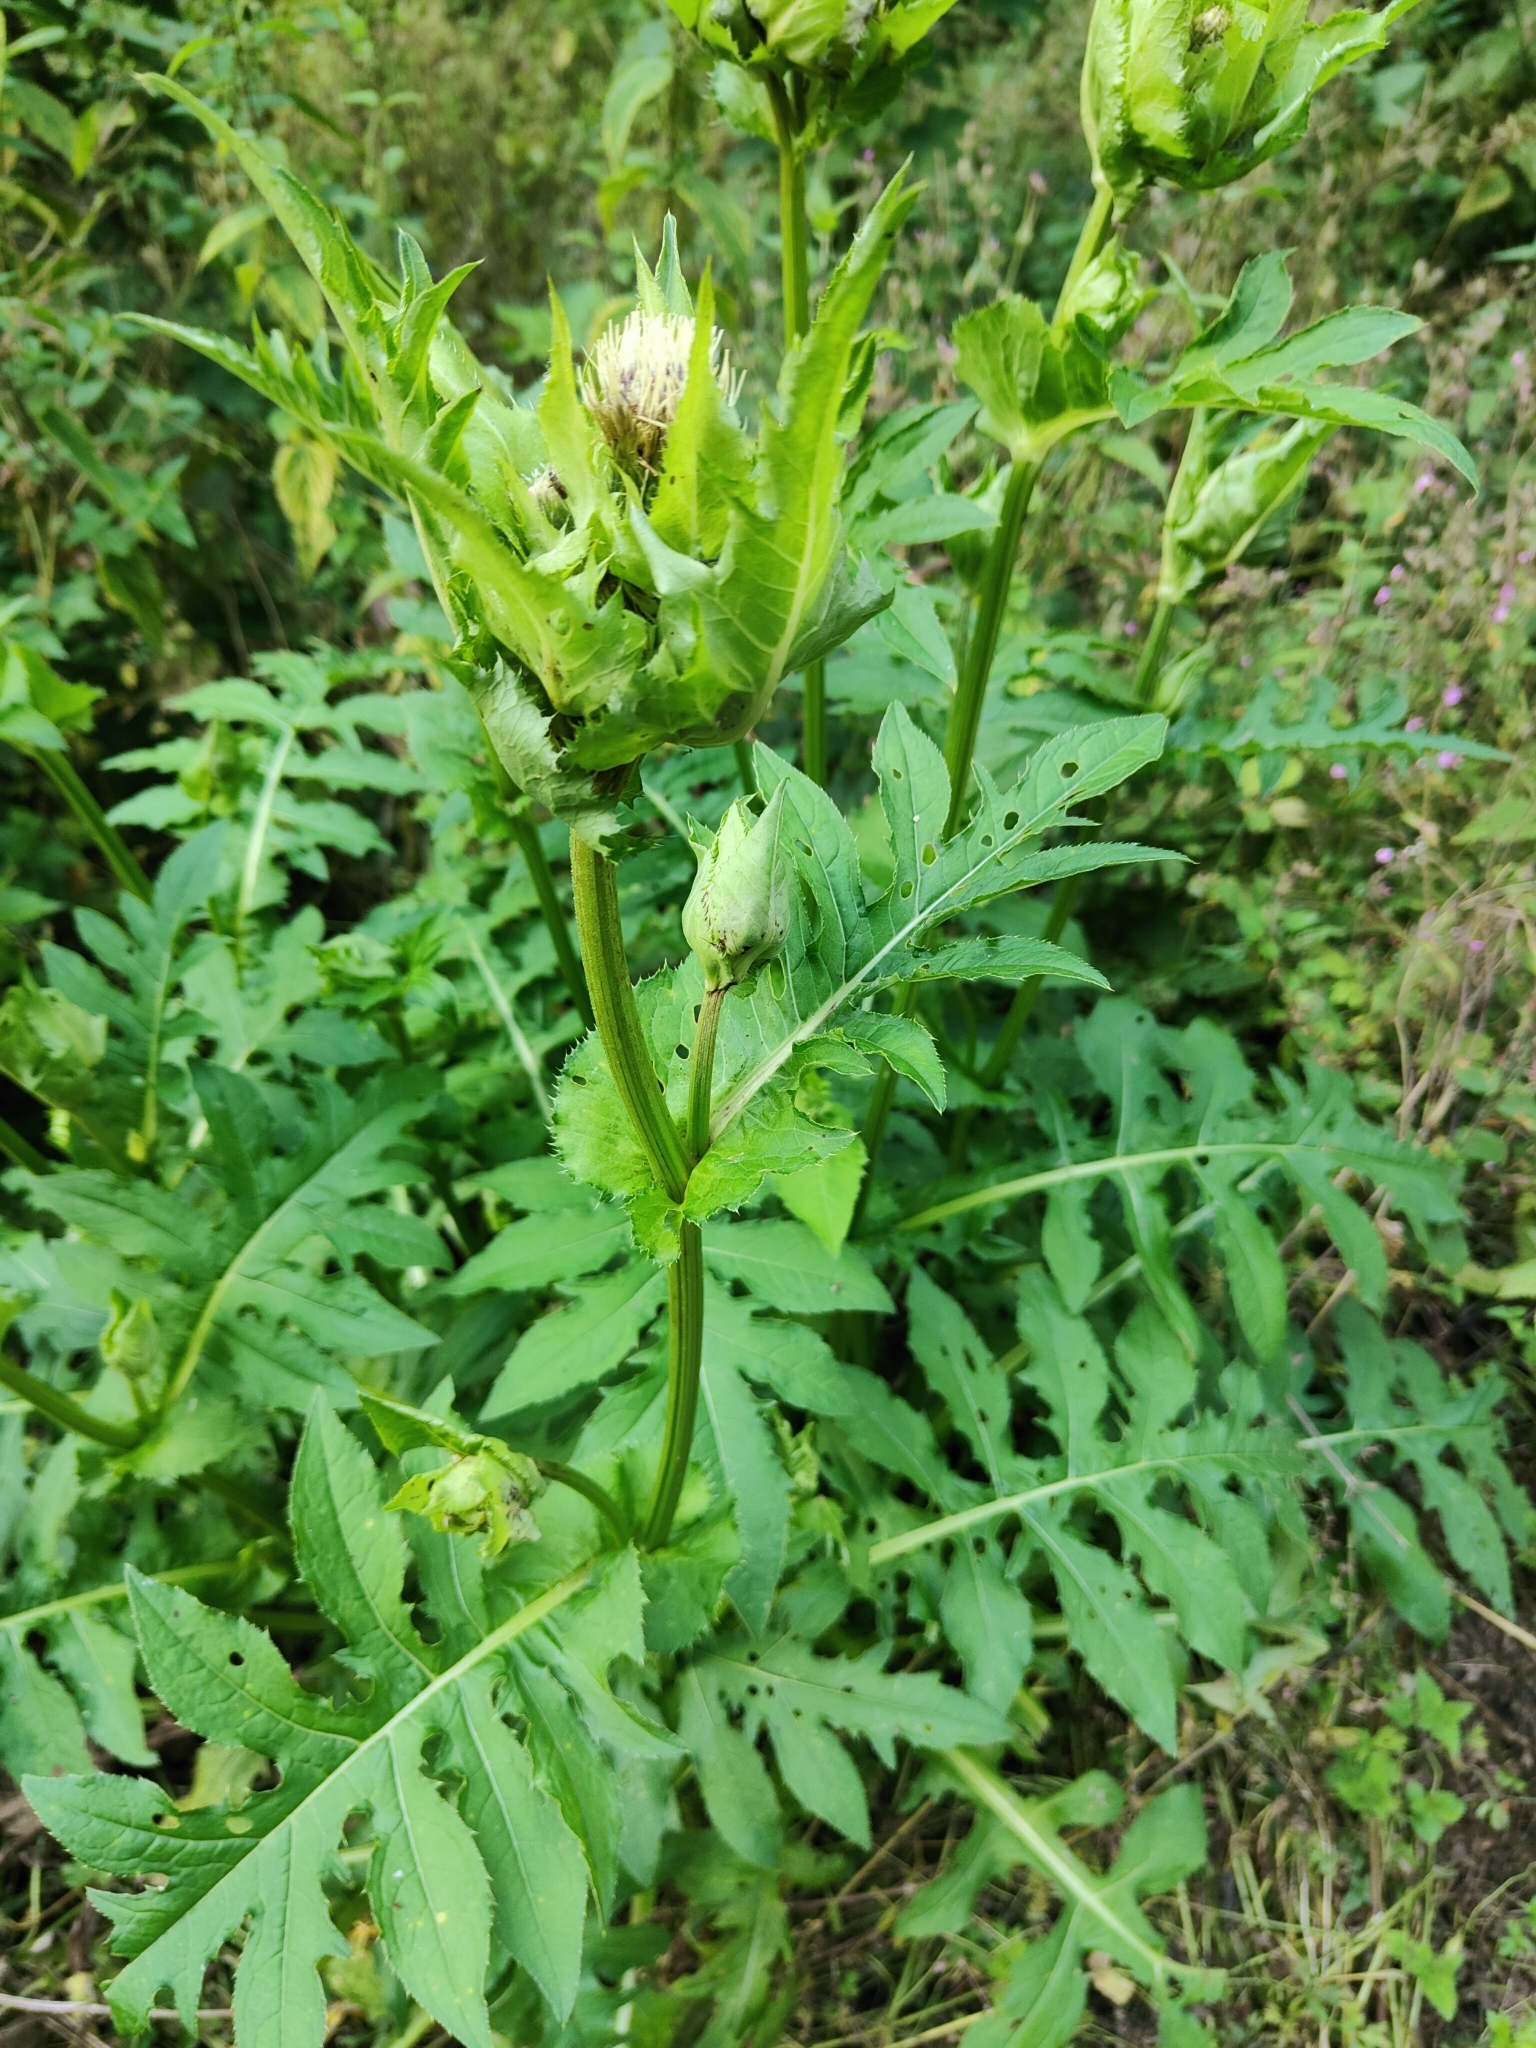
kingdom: Plantae
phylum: Tracheophyta
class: Magnoliopsida
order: Asterales
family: Asteraceae
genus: Cirsium
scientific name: Cirsium oleraceum
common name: Cabbage thistle
